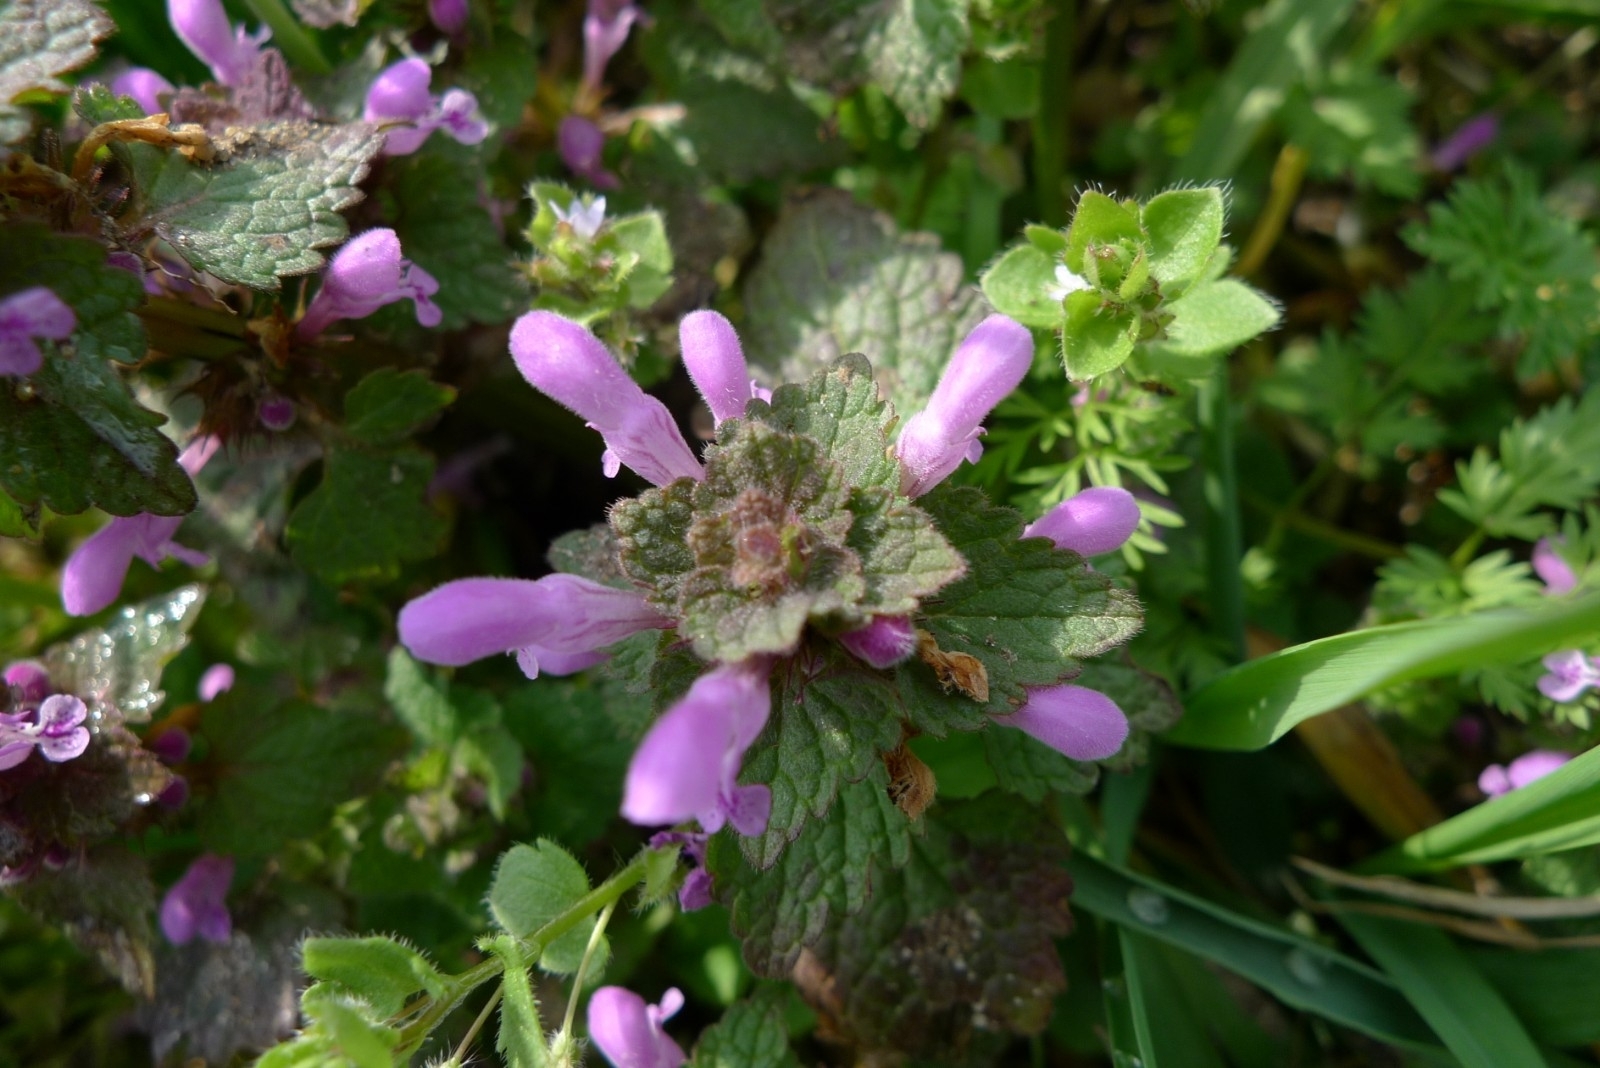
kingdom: Plantae
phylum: Tracheophyta
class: Magnoliopsida
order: Lamiales
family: Lamiaceae
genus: Lamium
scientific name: Lamium purpureum
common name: Red dead-nettle
